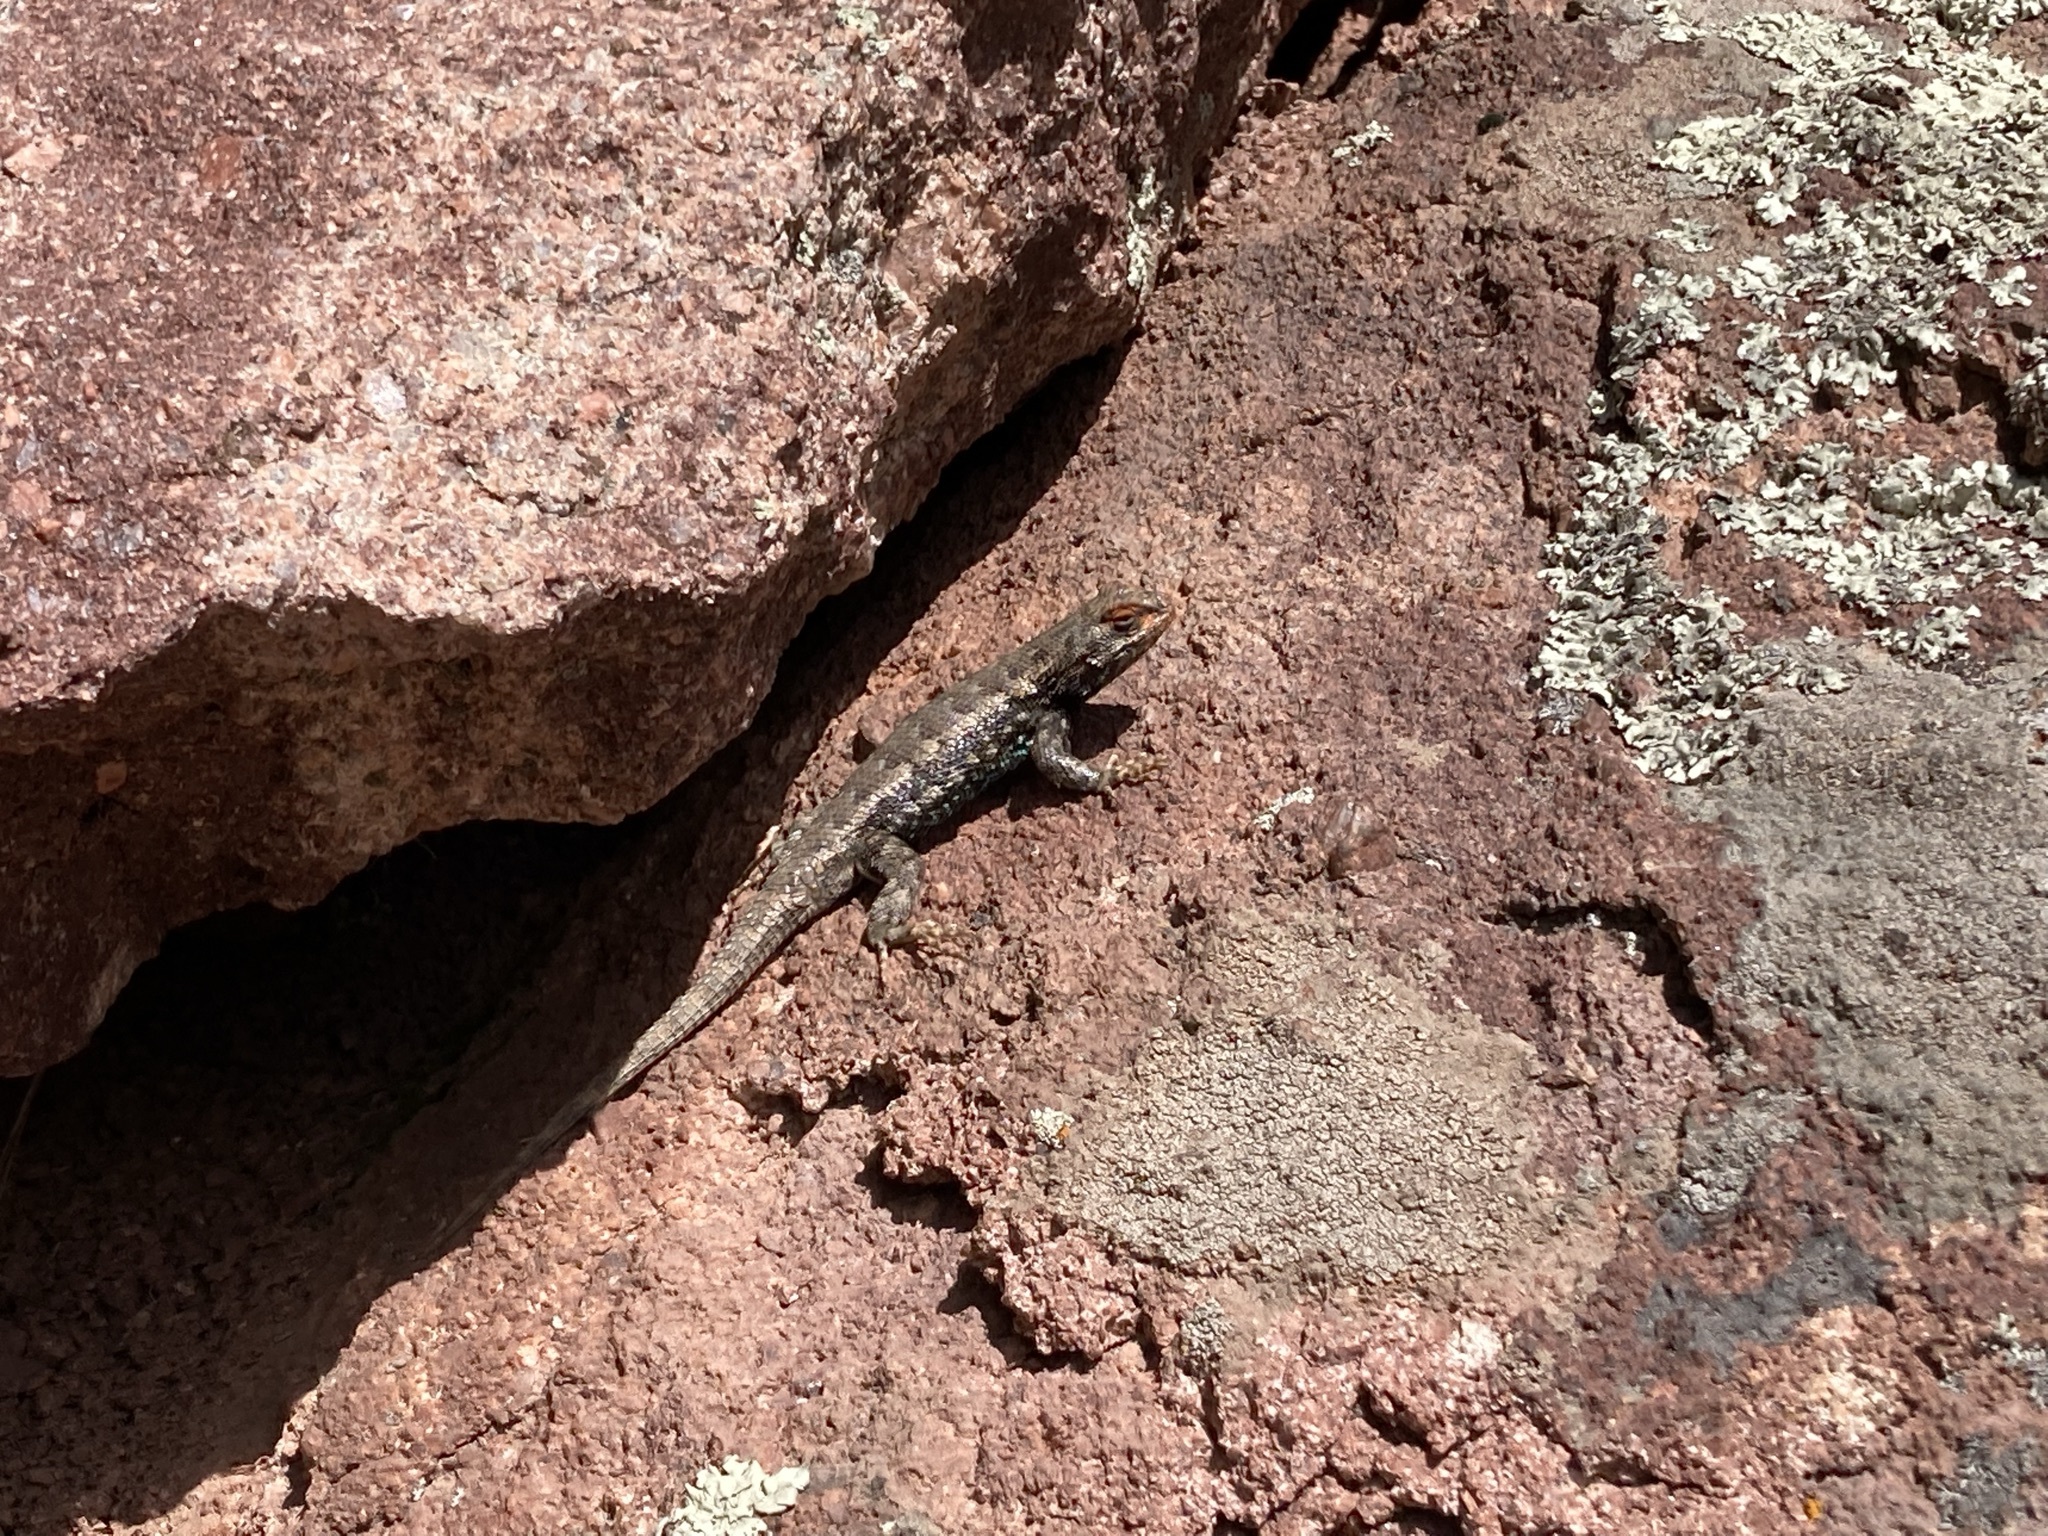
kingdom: Animalia
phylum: Chordata
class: Squamata
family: Phrynosomatidae
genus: Sceloporus
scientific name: Sceloporus consobrinus
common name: Southern prairie lizard
